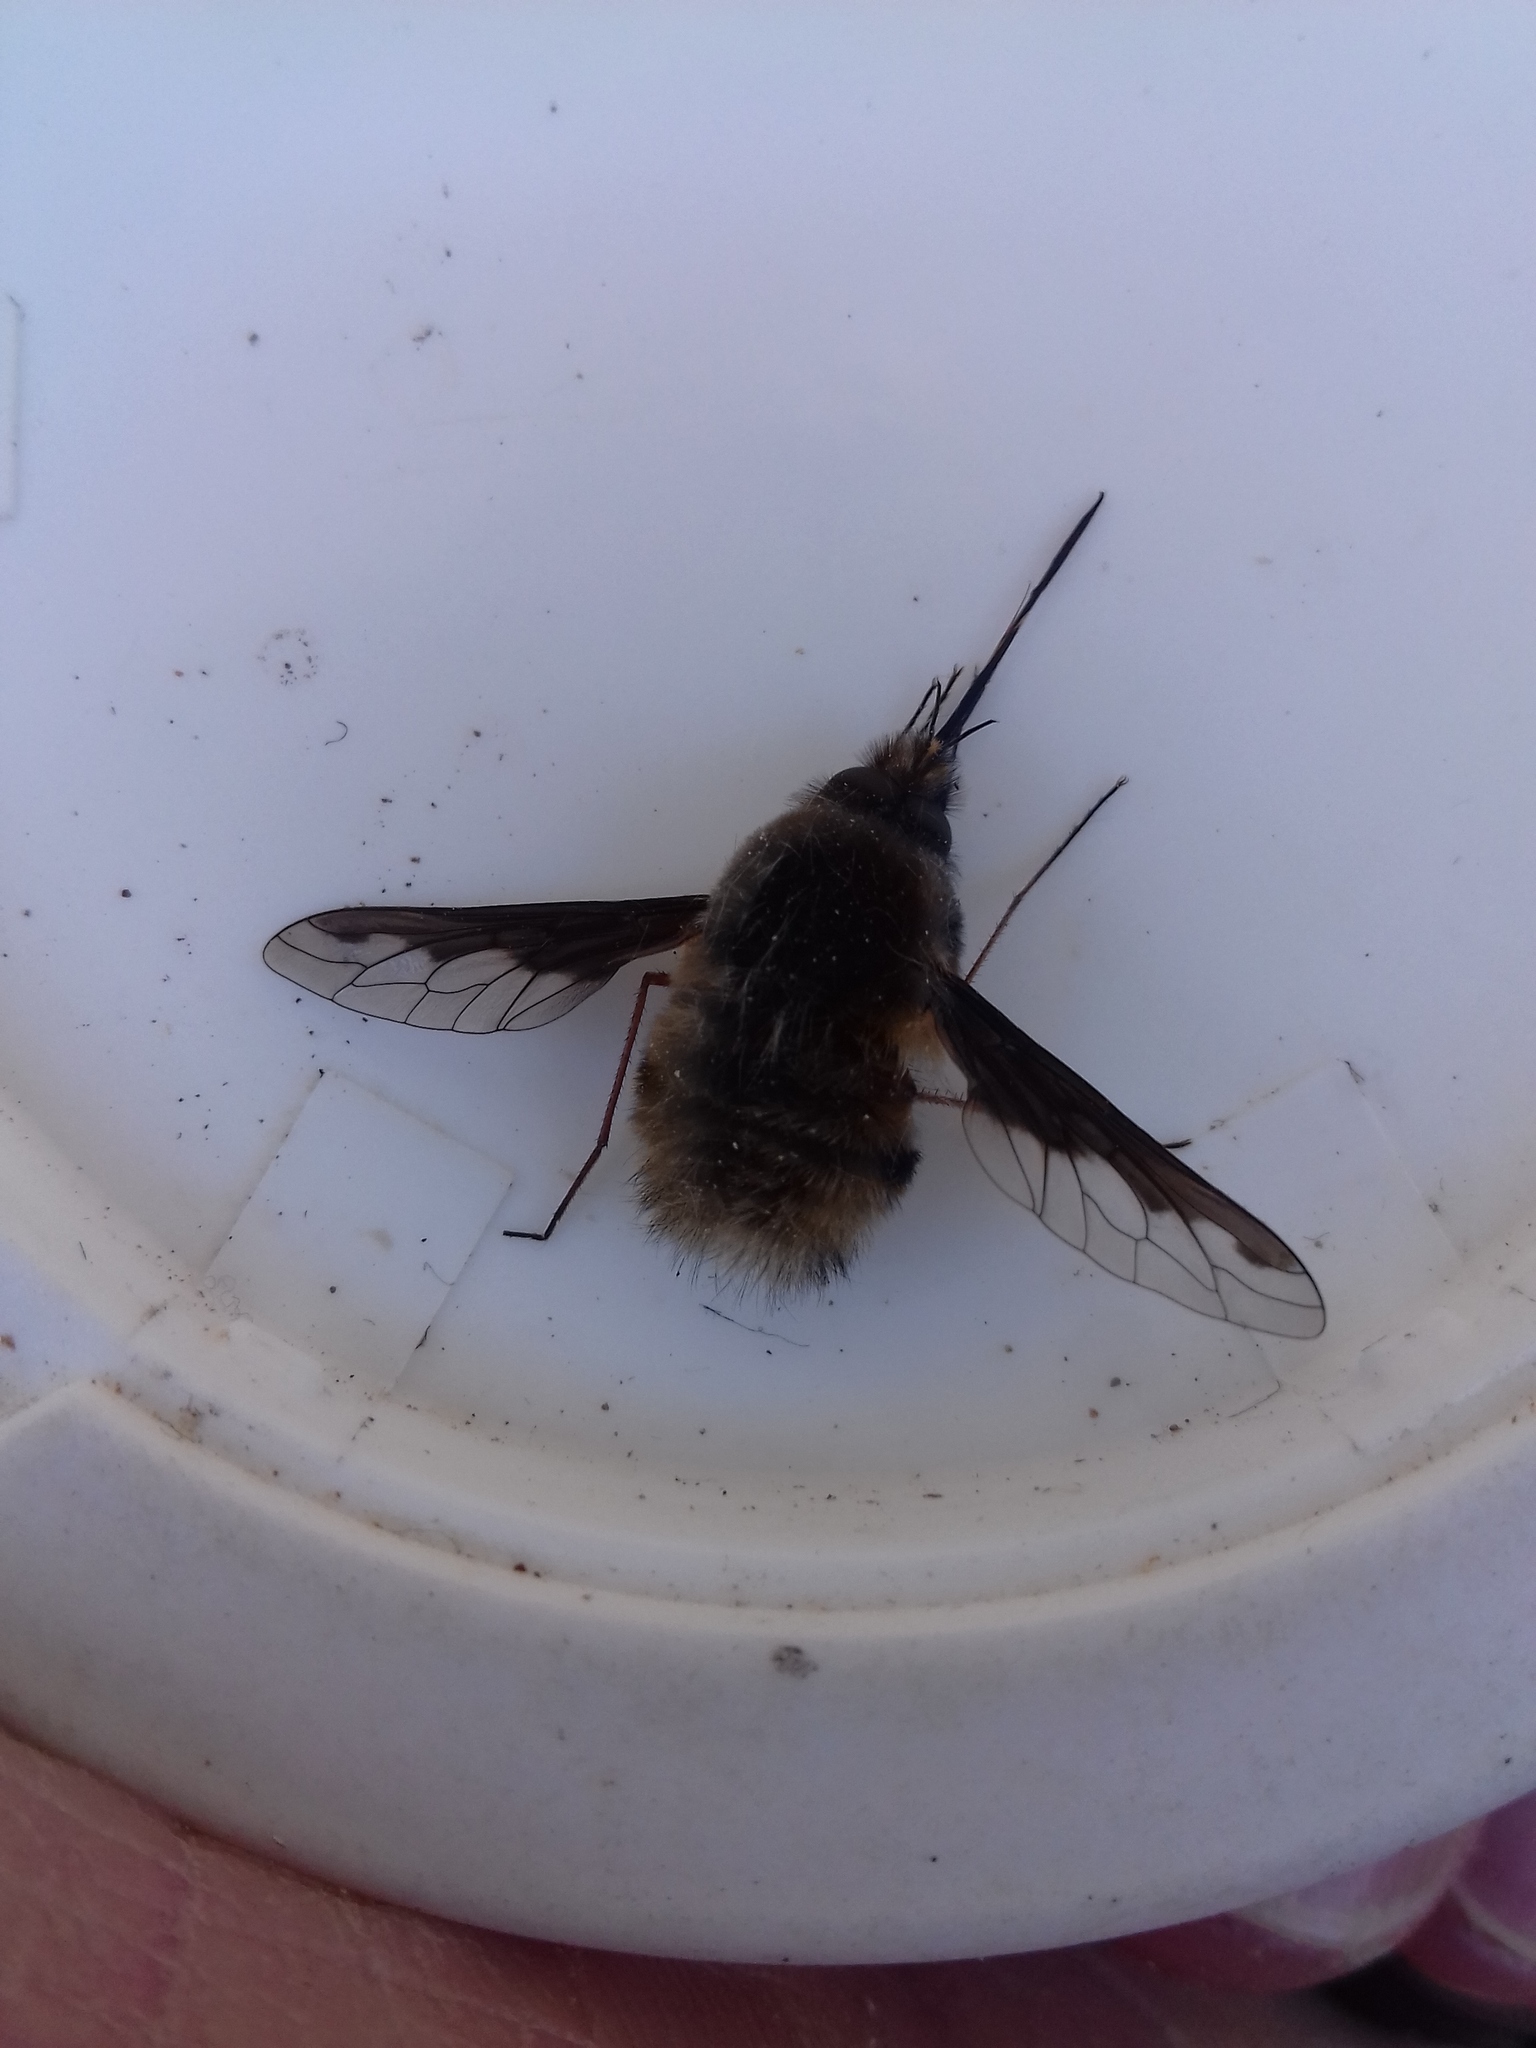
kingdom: Animalia
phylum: Arthropoda
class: Insecta
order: Diptera
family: Bombyliidae
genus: Bombylius
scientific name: Bombylius major
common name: Bee fly
